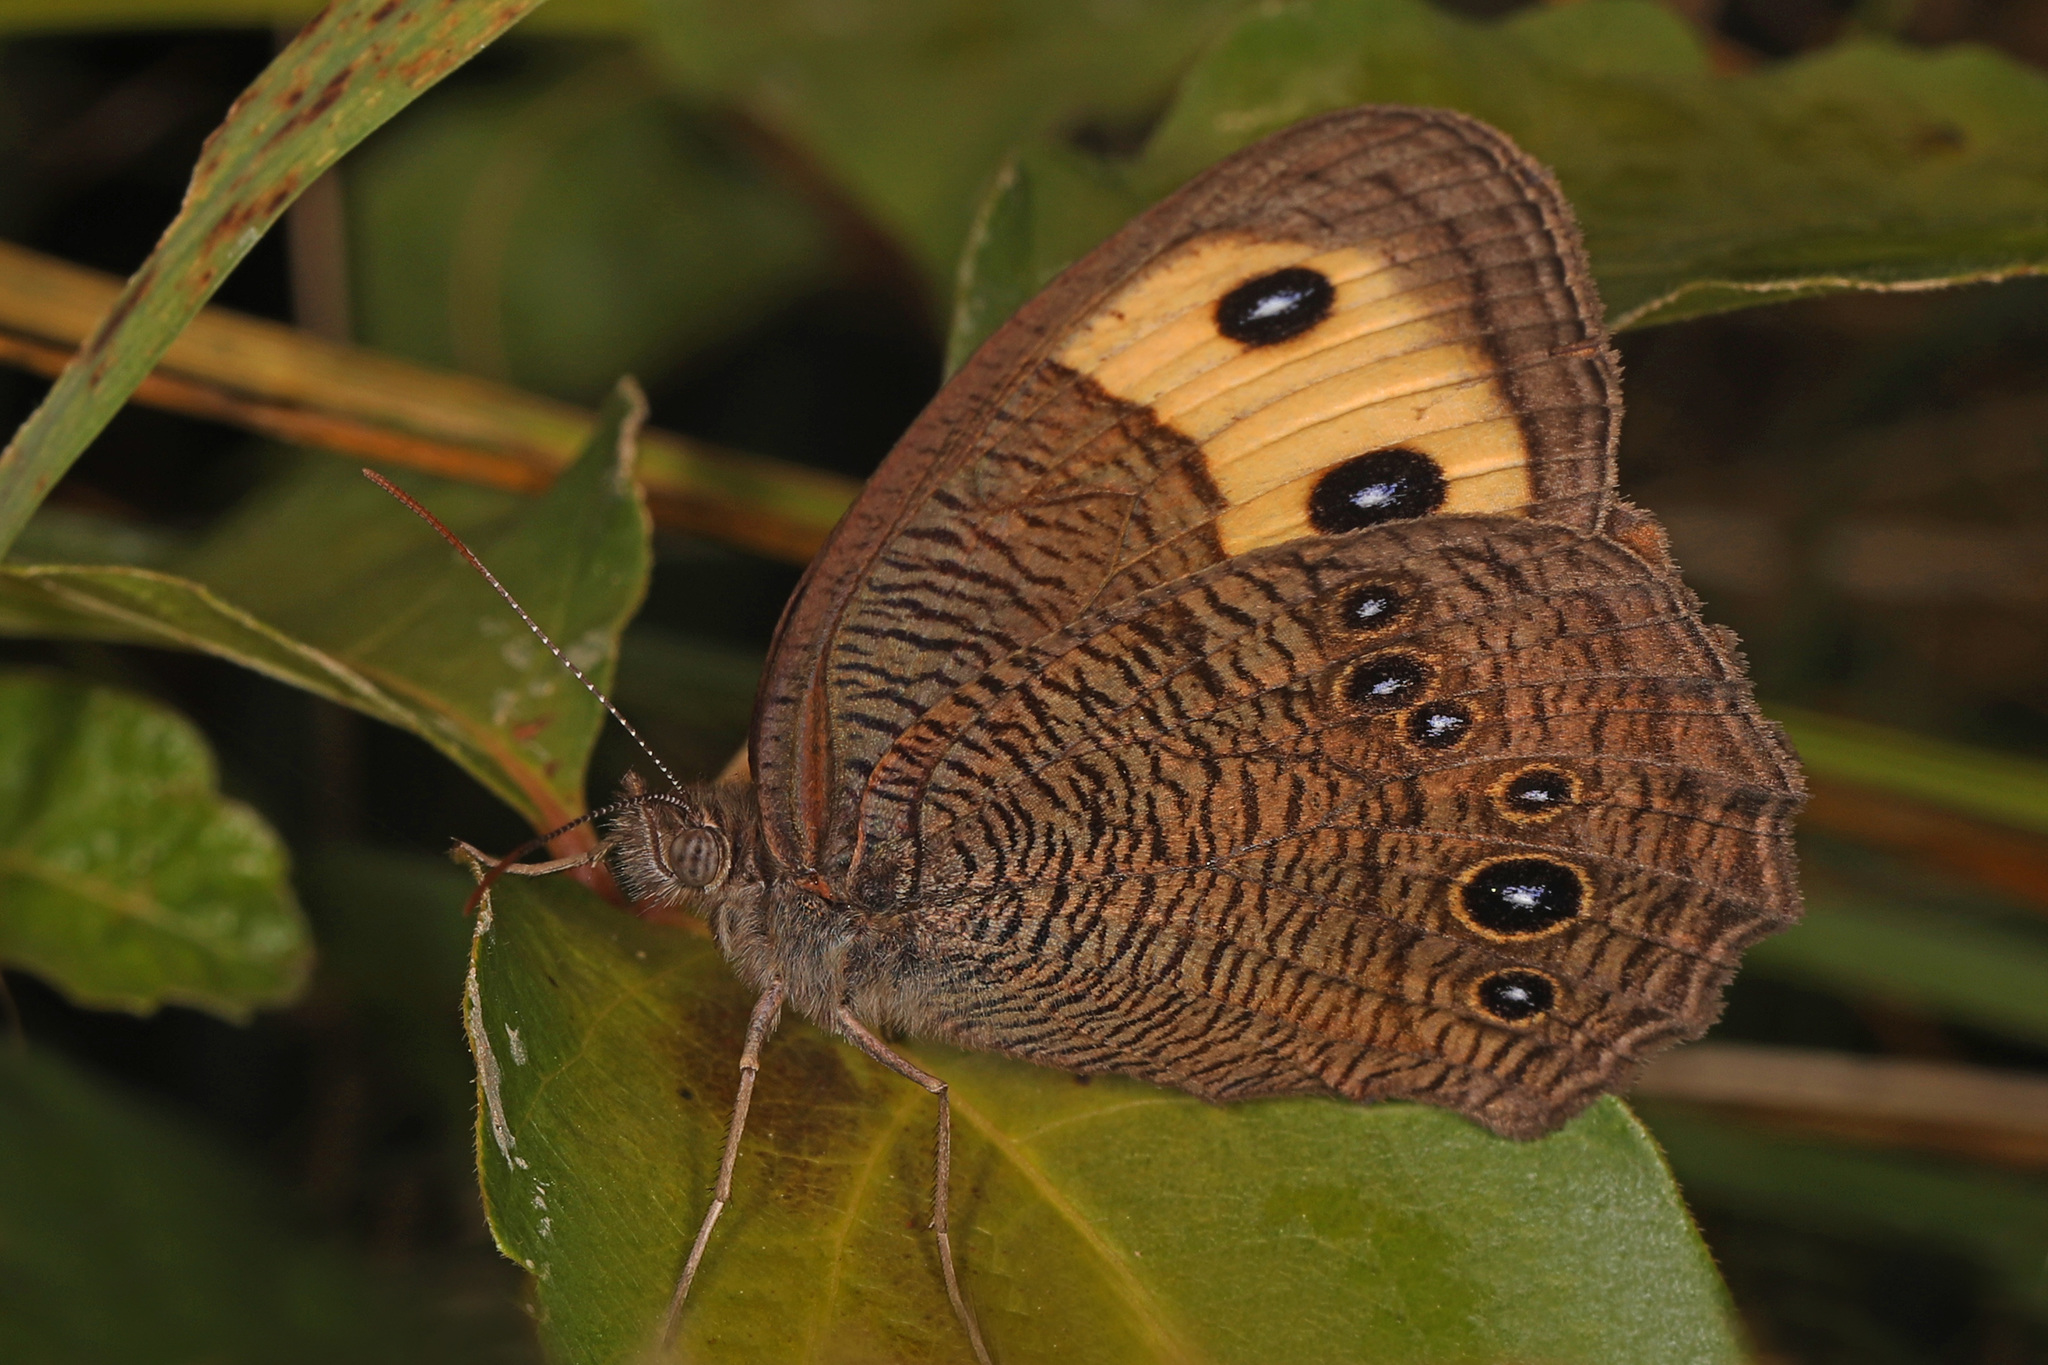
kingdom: Animalia
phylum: Arthropoda
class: Insecta
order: Lepidoptera
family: Nymphalidae
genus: Cercyonis
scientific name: Cercyonis pegala
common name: Common wood-nymph
